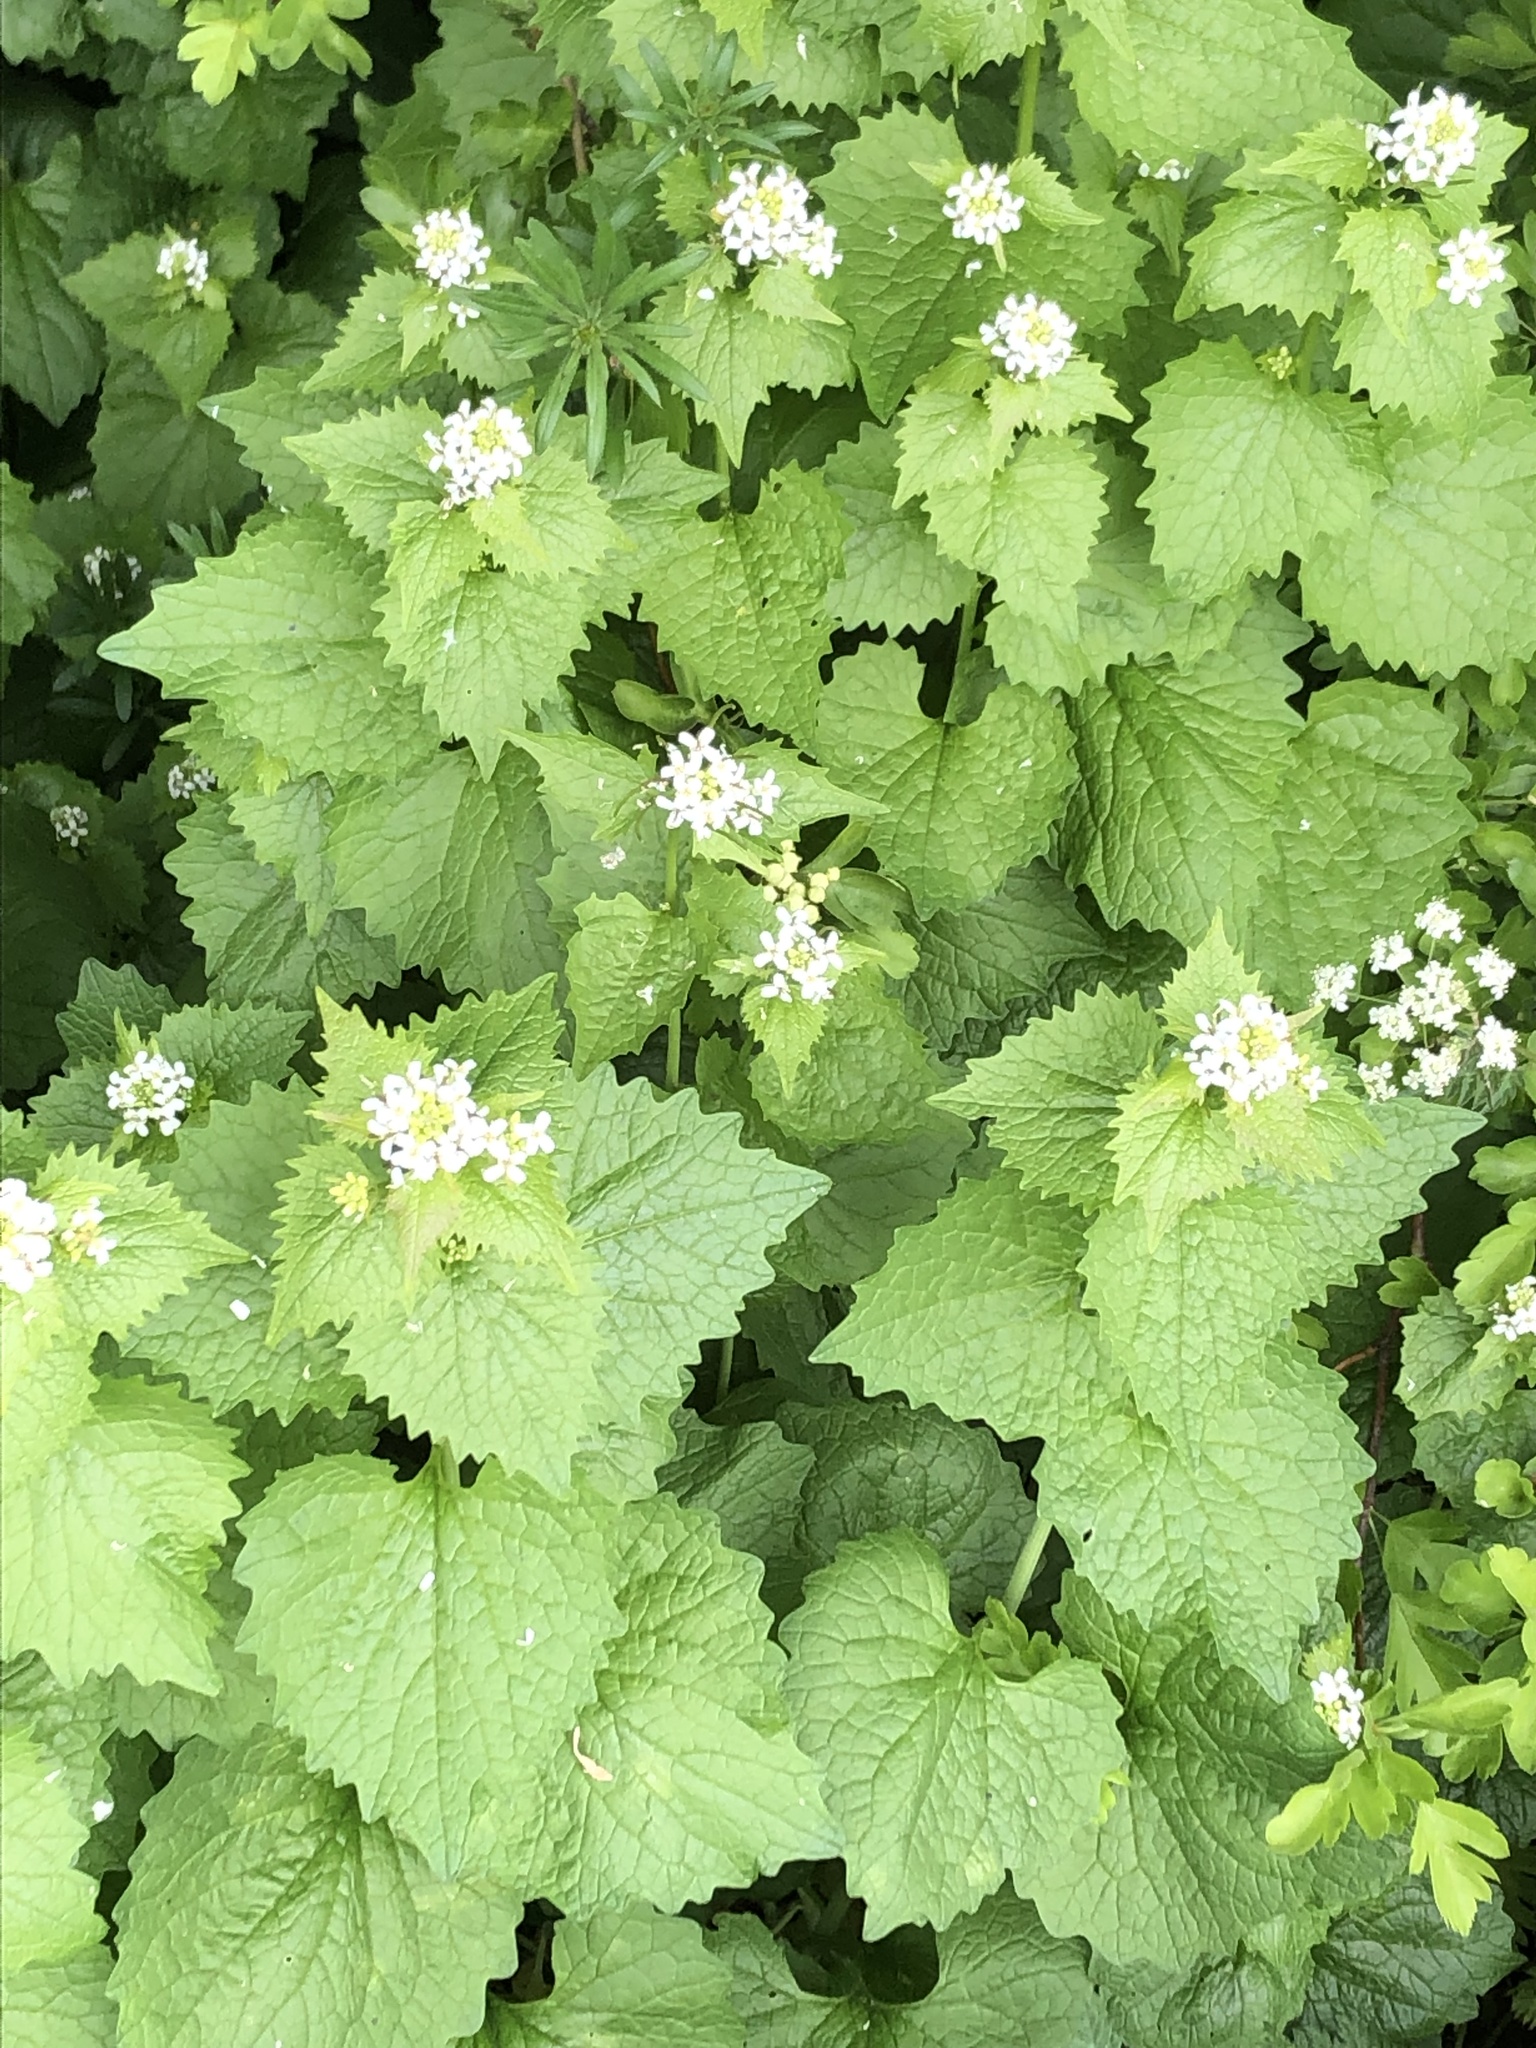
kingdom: Plantae
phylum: Tracheophyta
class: Magnoliopsida
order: Brassicales
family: Brassicaceae
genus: Alliaria
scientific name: Alliaria petiolata
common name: Garlic mustard
